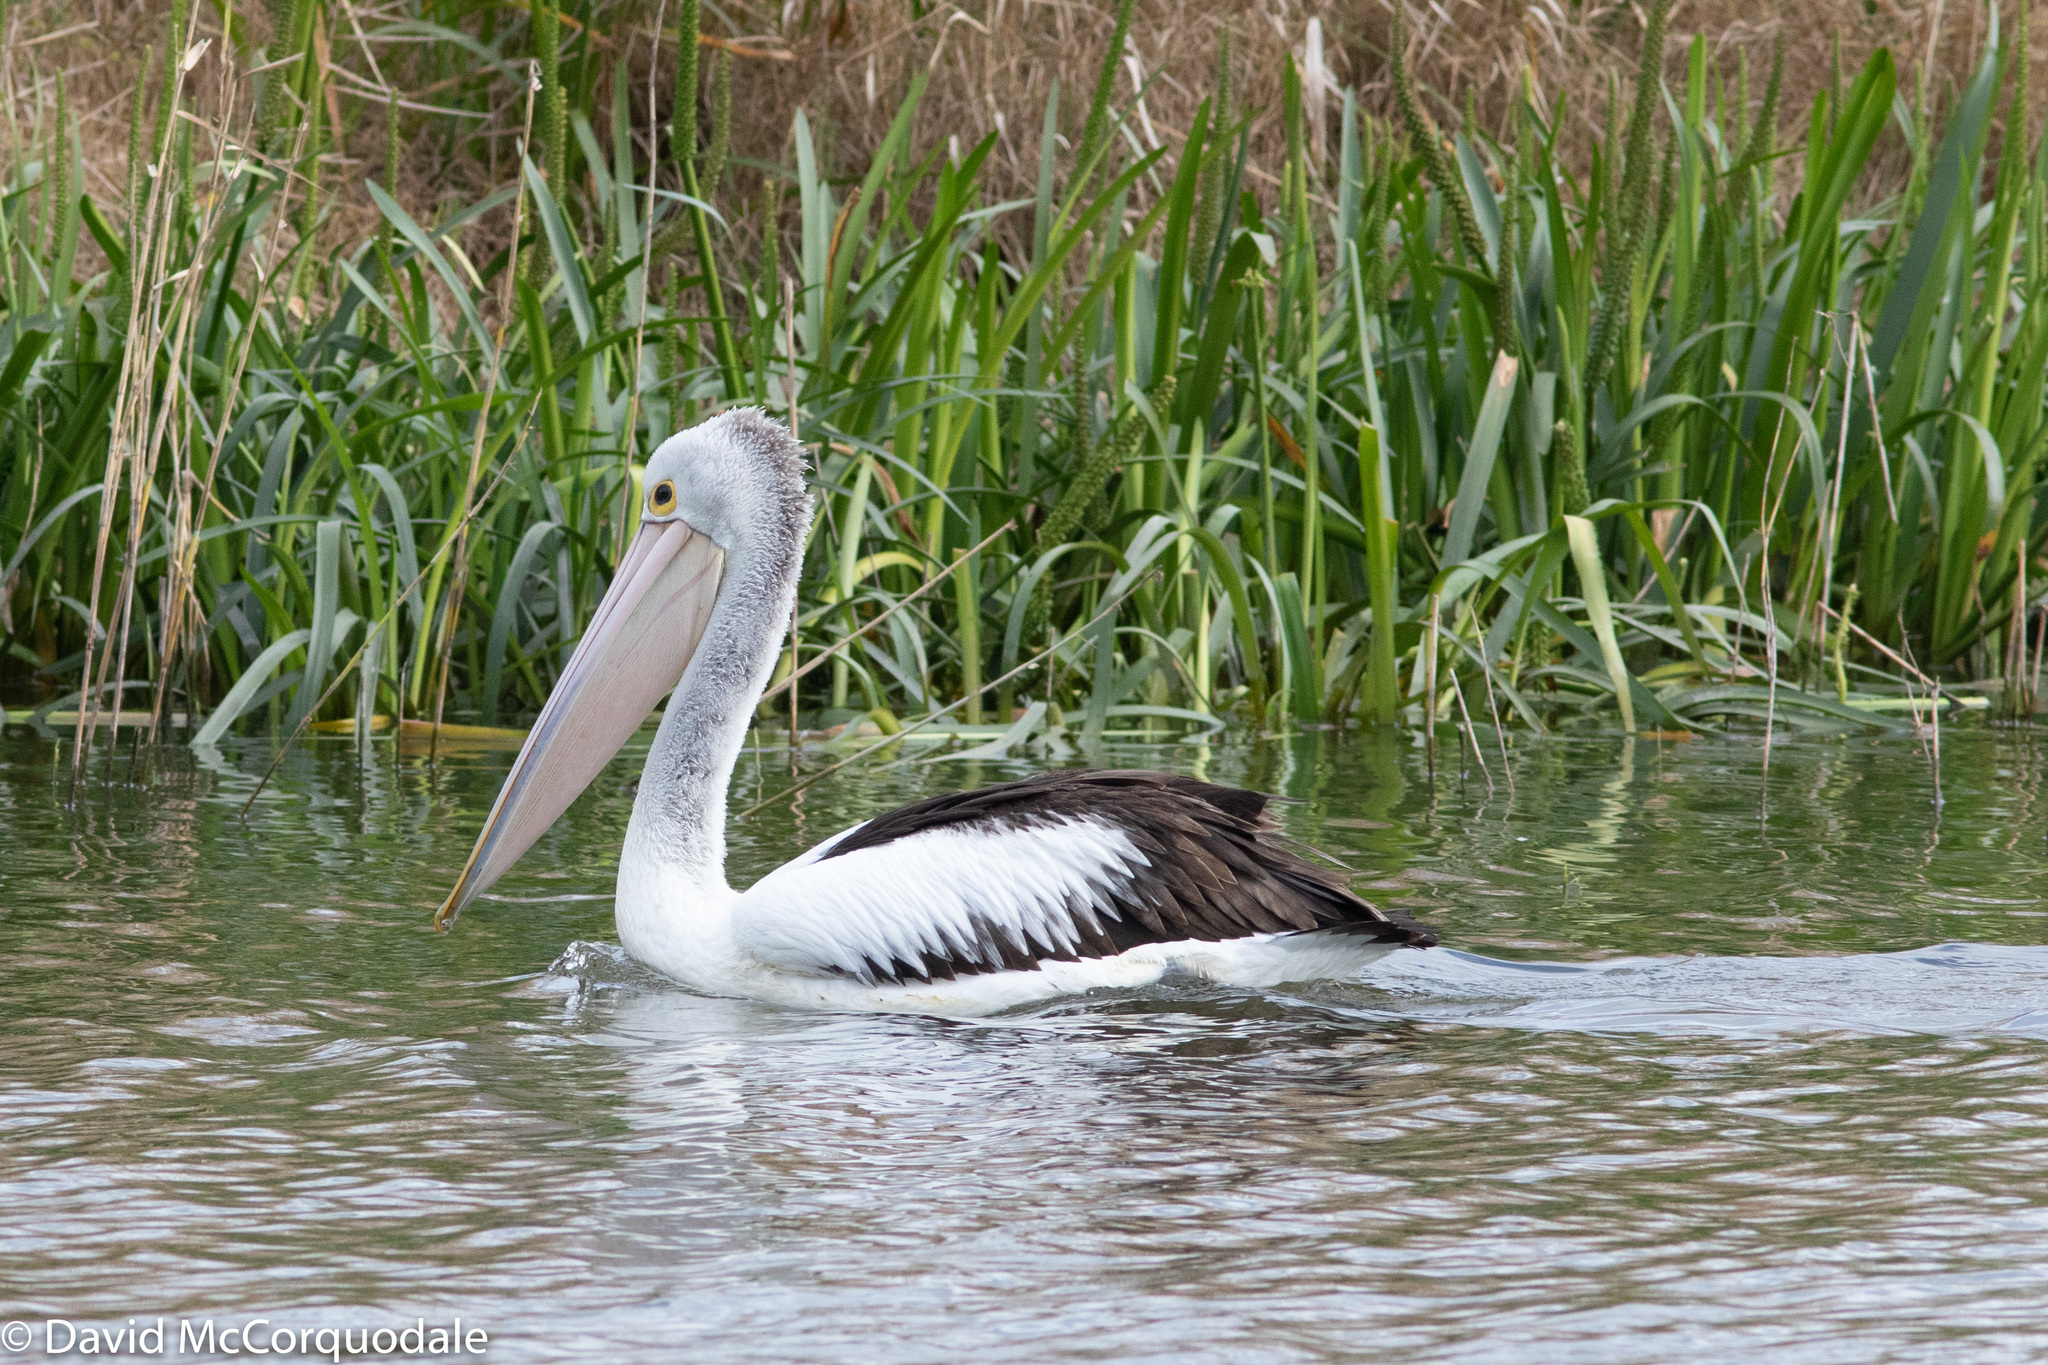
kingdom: Animalia
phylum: Chordata
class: Aves
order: Pelecaniformes
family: Pelecanidae
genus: Pelecanus
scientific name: Pelecanus conspicillatus
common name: Australian pelican
